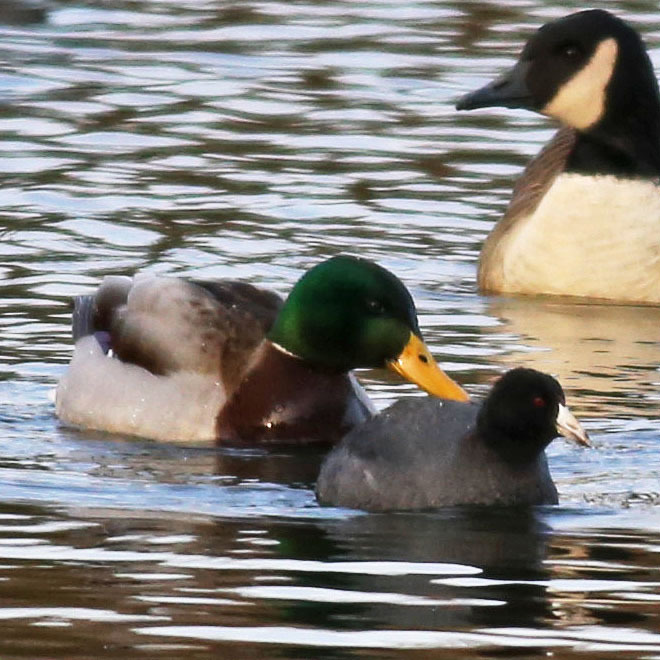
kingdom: Animalia
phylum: Chordata
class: Aves
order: Gruiformes
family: Rallidae
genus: Fulica
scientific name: Fulica americana
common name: American coot
